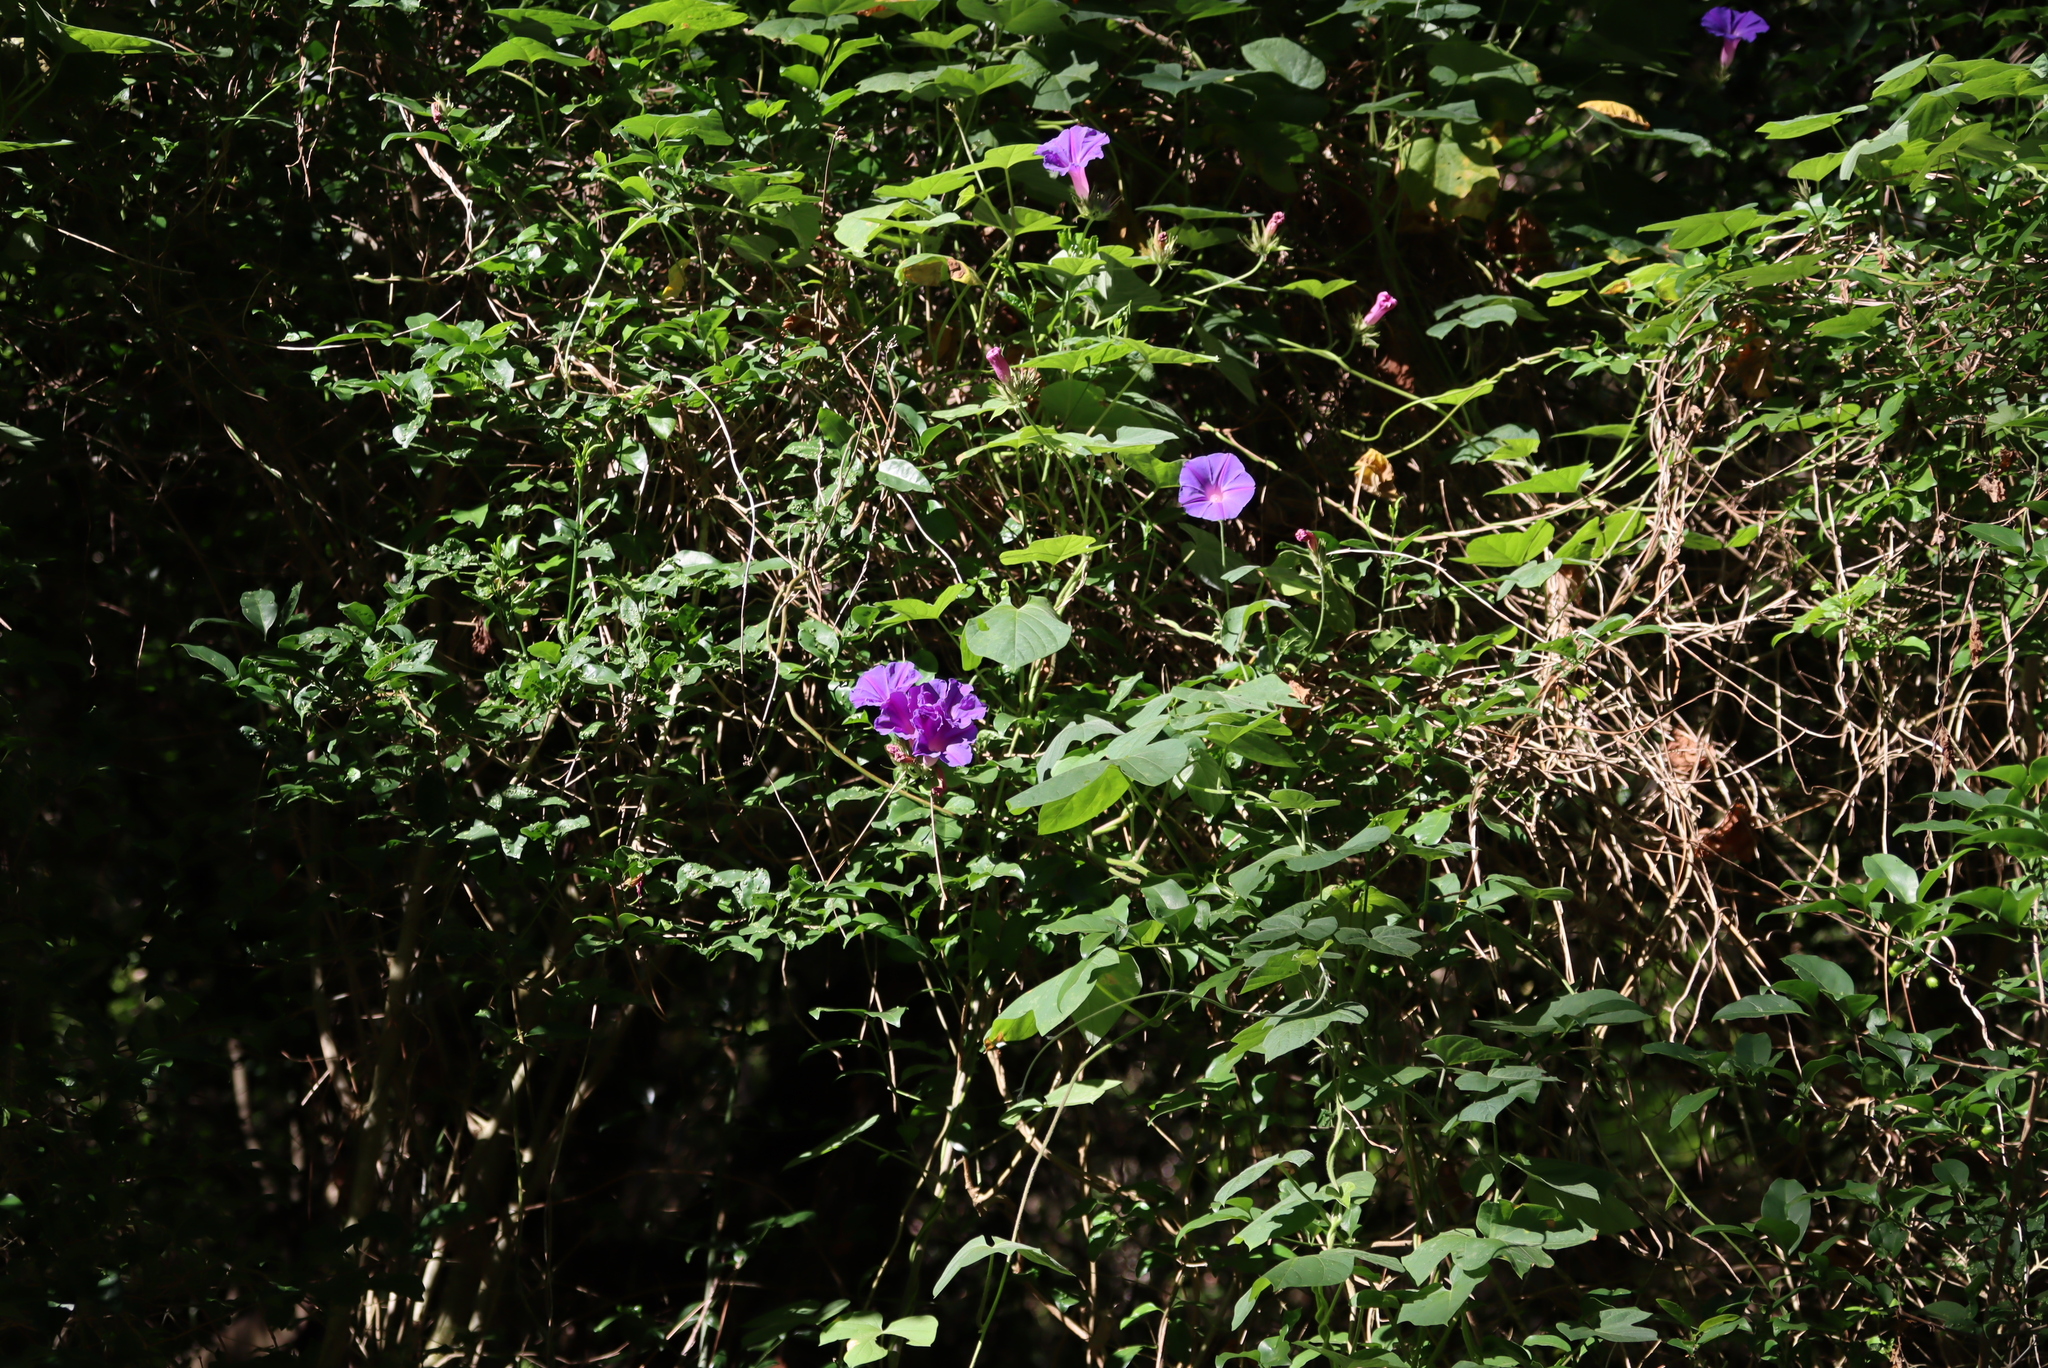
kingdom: Plantae
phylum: Tracheophyta
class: Magnoliopsida
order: Solanales
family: Convolvulaceae
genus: Ipomoea
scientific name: Ipomoea indica
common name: Blue dawnflower
